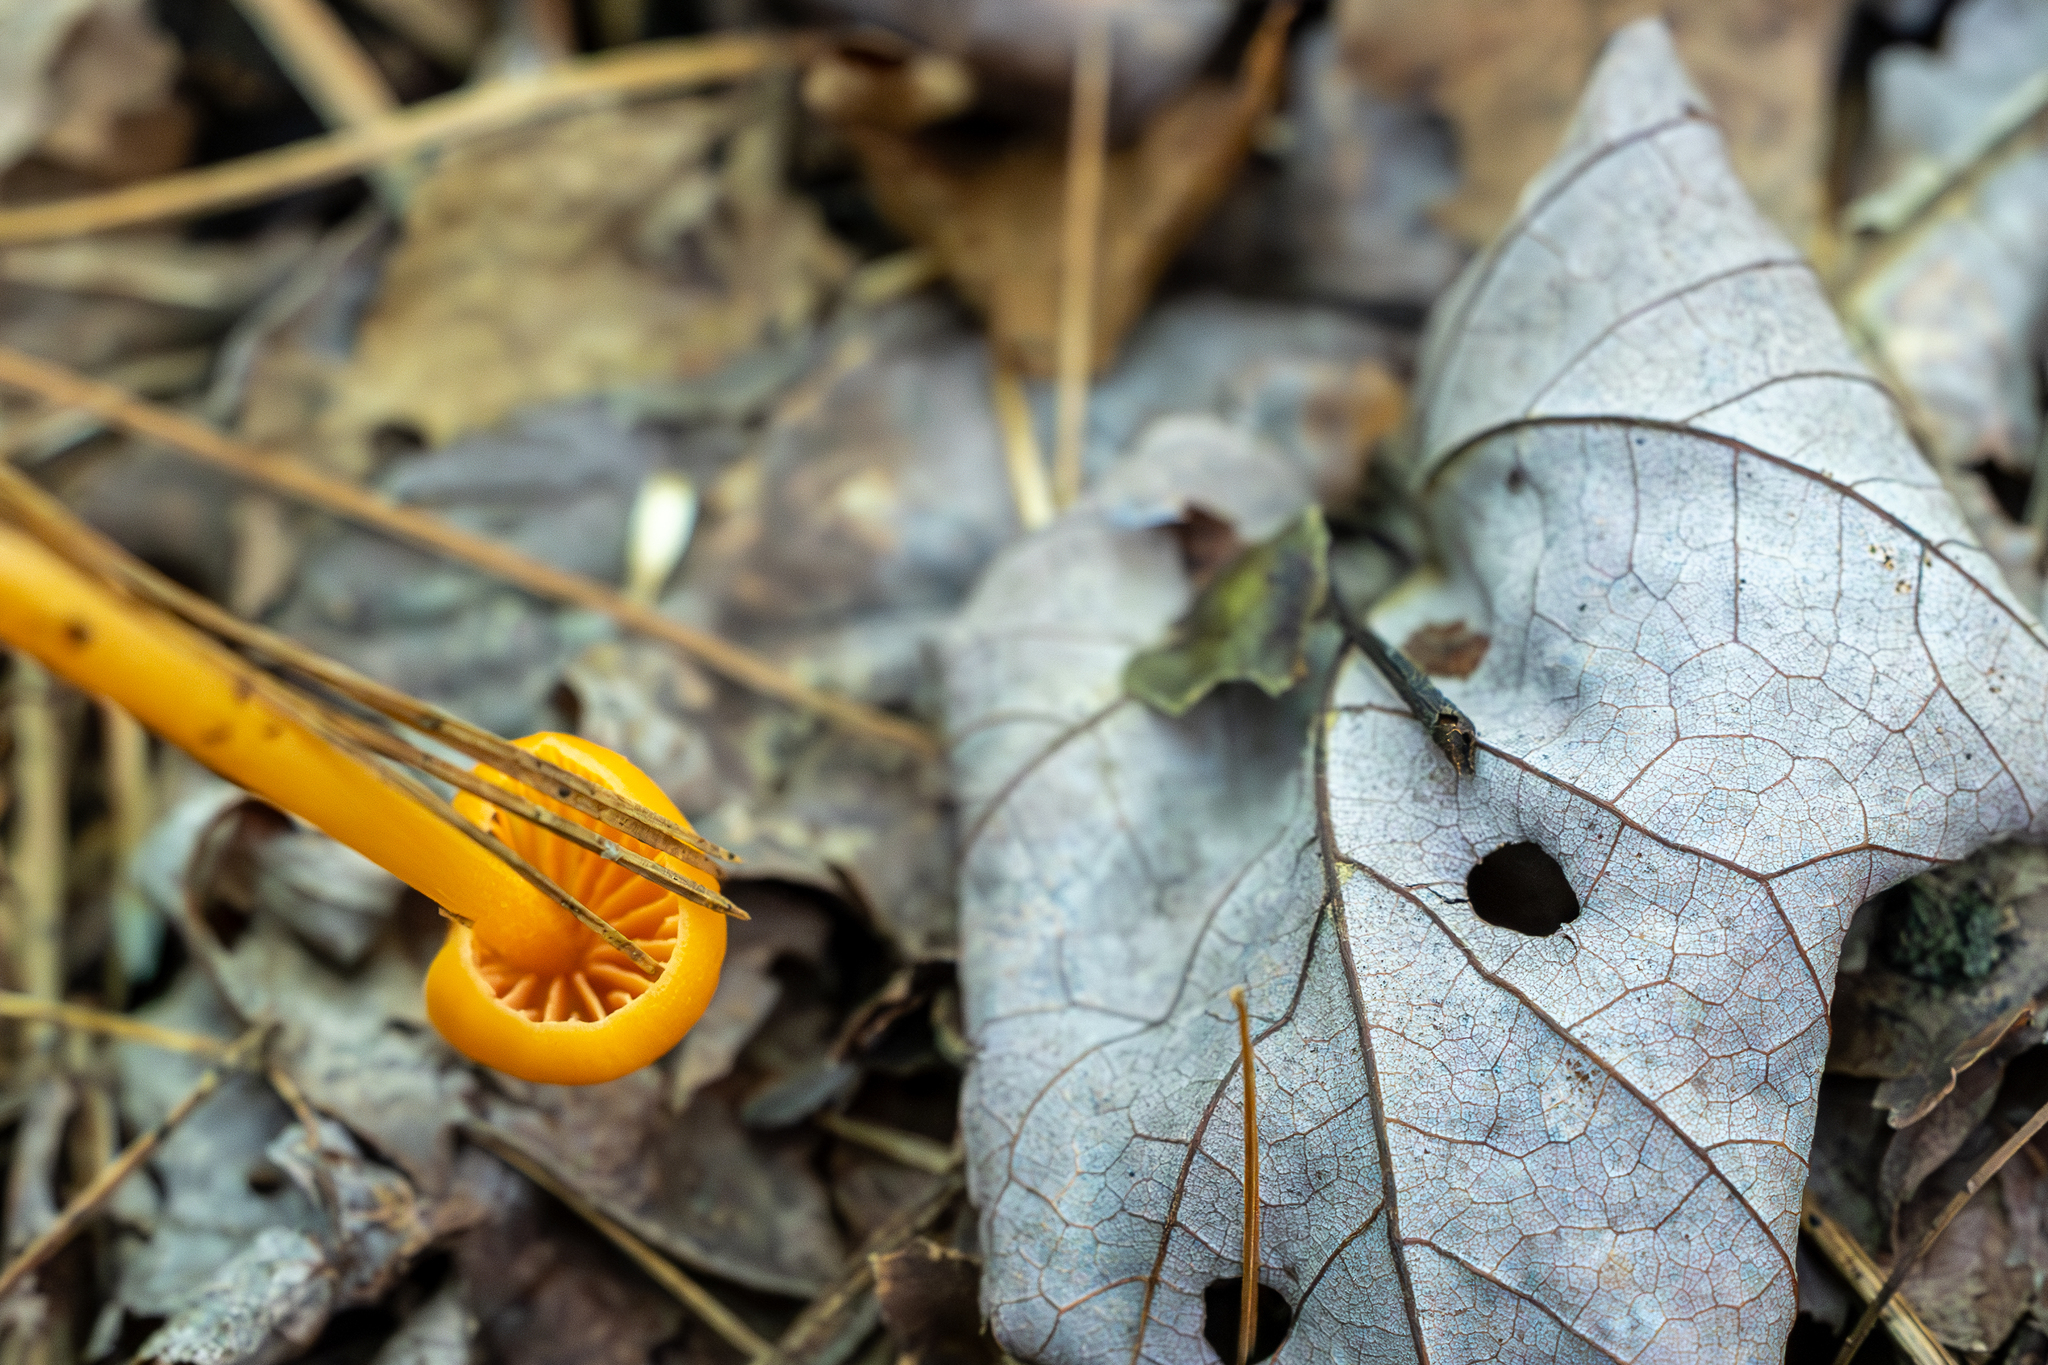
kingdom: Fungi
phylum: Basidiomycota
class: Agaricomycetes
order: Agaricales
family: Entolomataceae
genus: Entoloma
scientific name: Entoloma quadratum
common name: Salmon pinkgill
